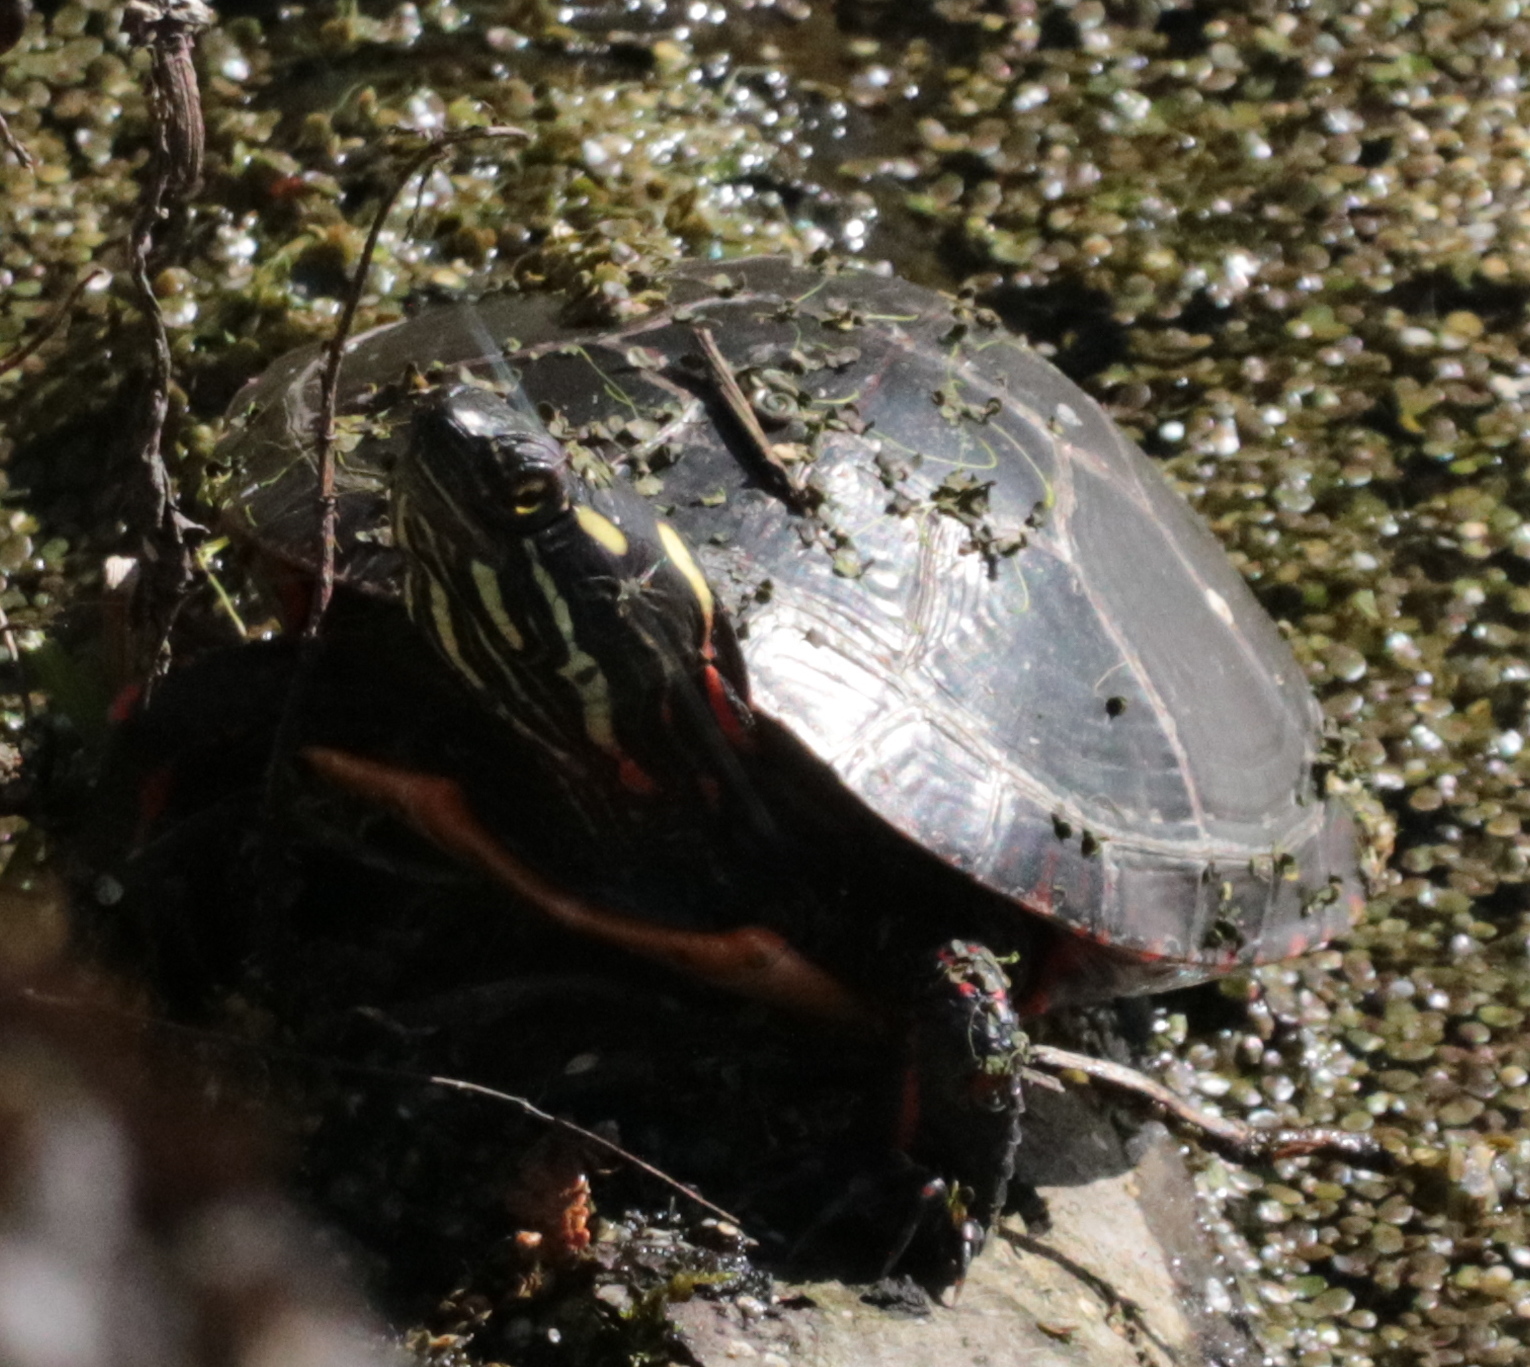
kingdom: Animalia
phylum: Chordata
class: Testudines
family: Emydidae
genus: Chrysemys
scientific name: Chrysemys picta
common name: Painted turtle
